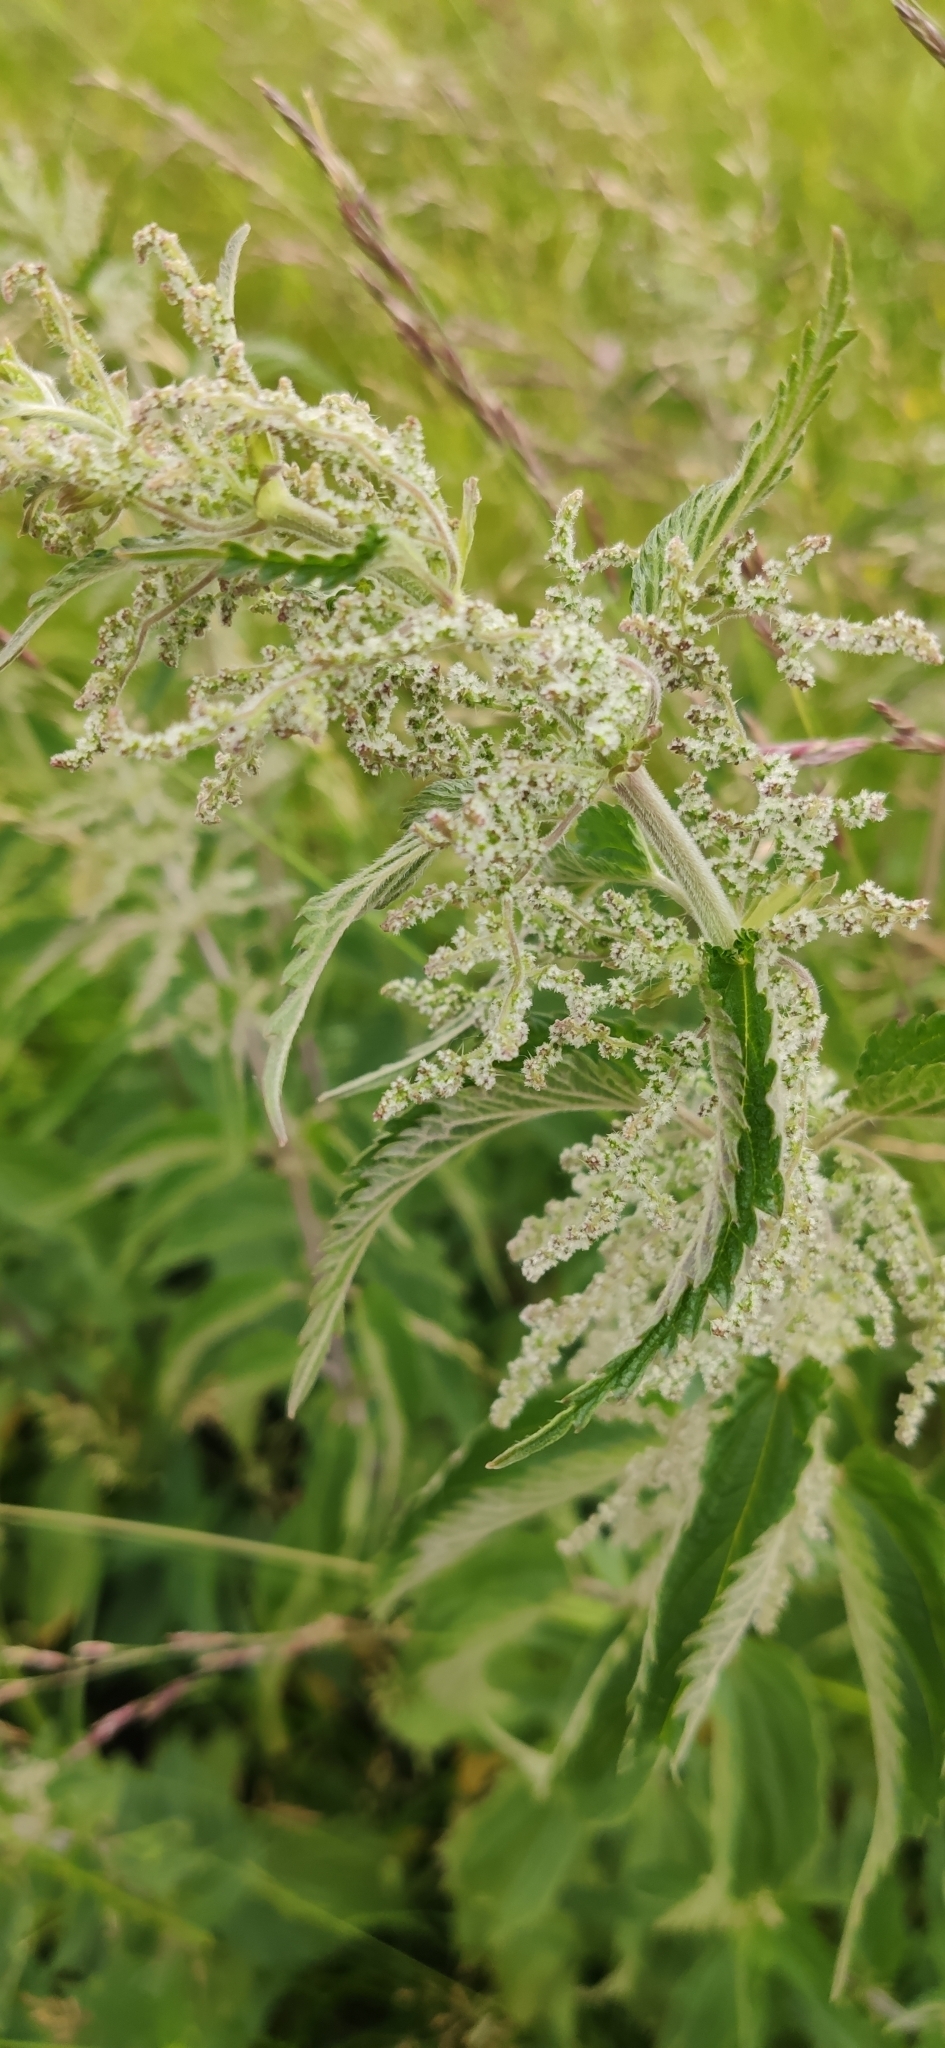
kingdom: Plantae
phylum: Tracheophyta
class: Magnoliopsida
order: Rosales
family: Urticaceae
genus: Urtica
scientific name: Urtica dioica
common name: Common nettle
